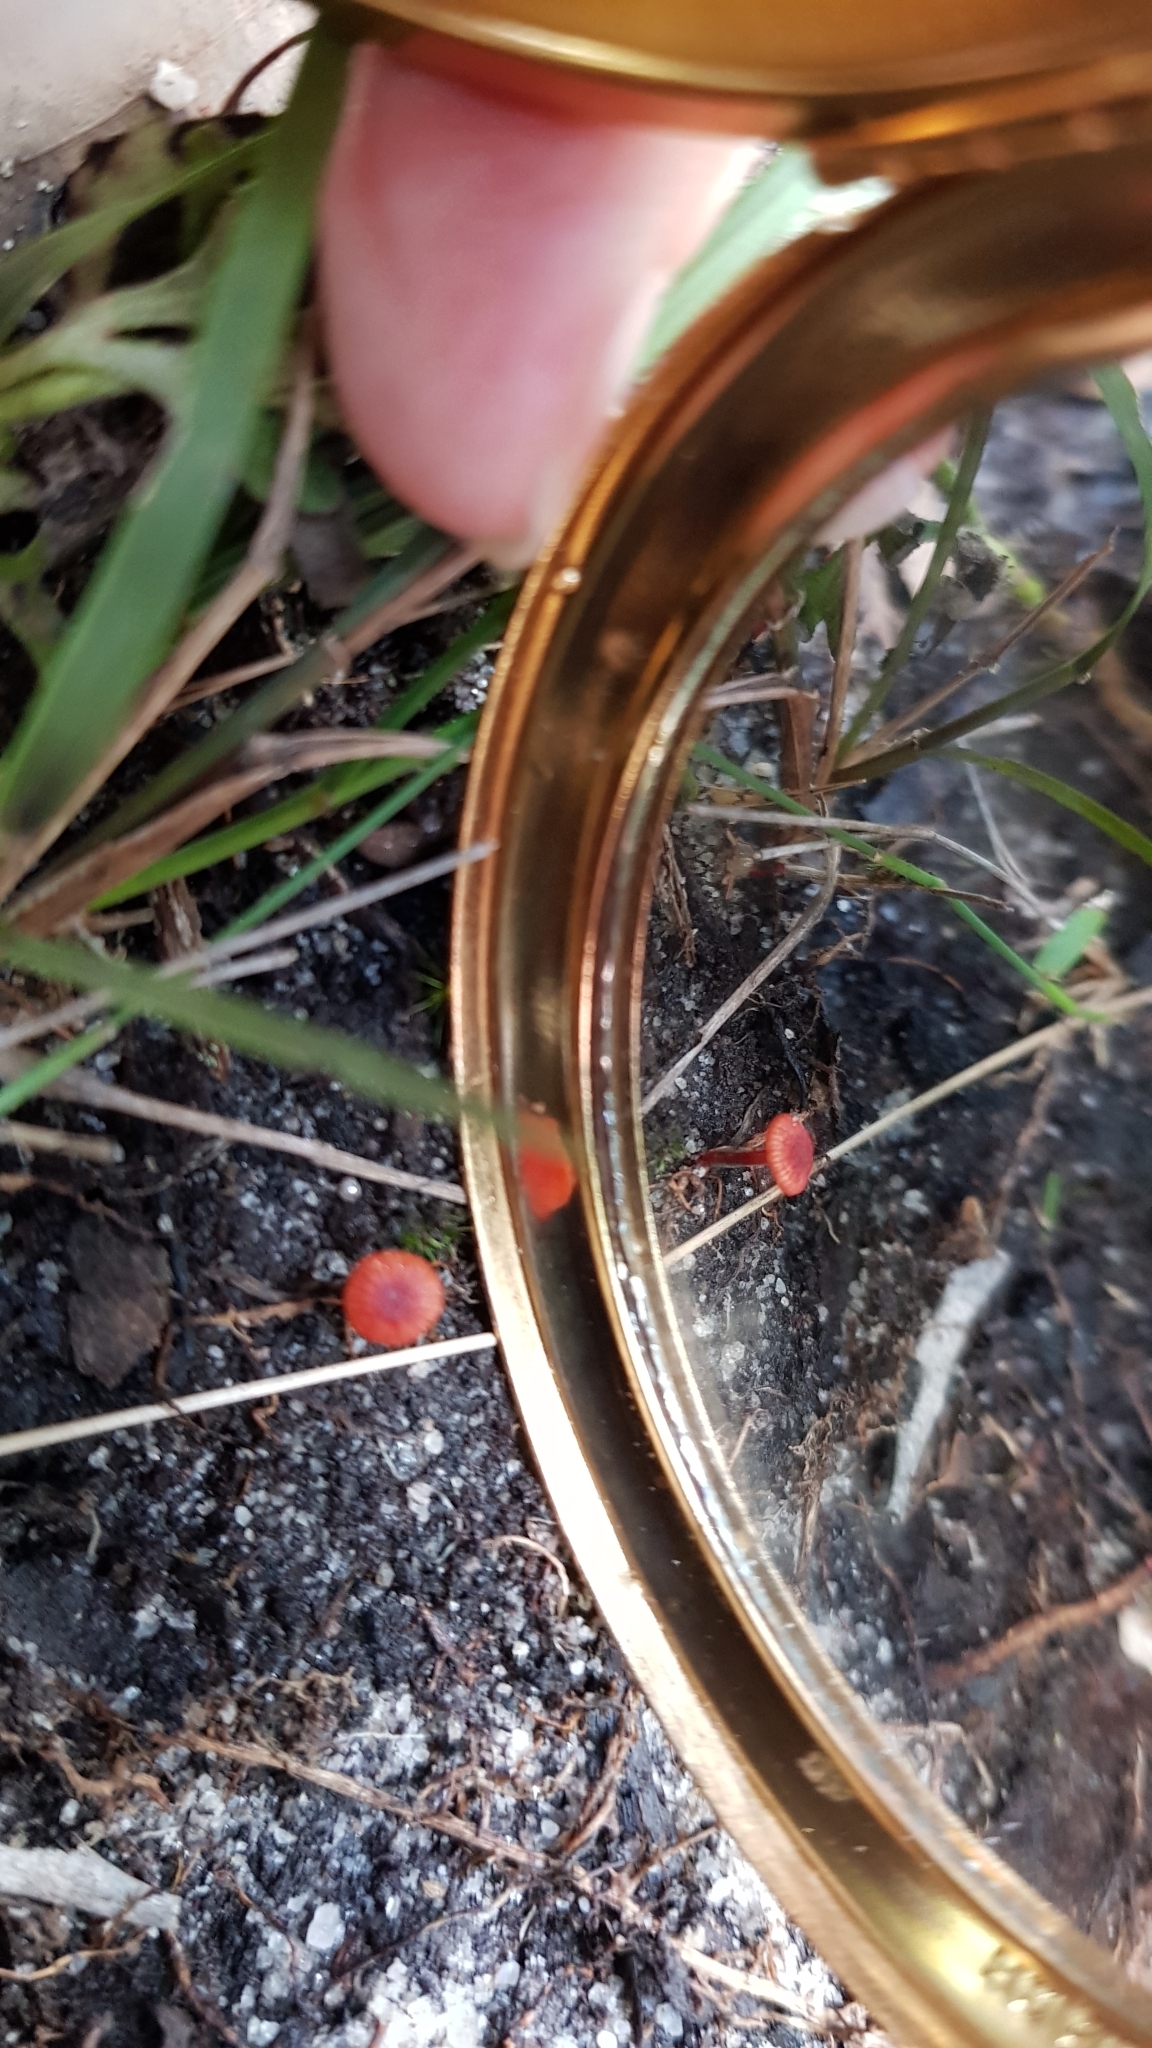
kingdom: Fungi
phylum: Basidiomycota
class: Agaricomycetes
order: Agaricales
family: Mycenaceae
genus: Cruentomycena
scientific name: Cruentomycena viscidocruenta
